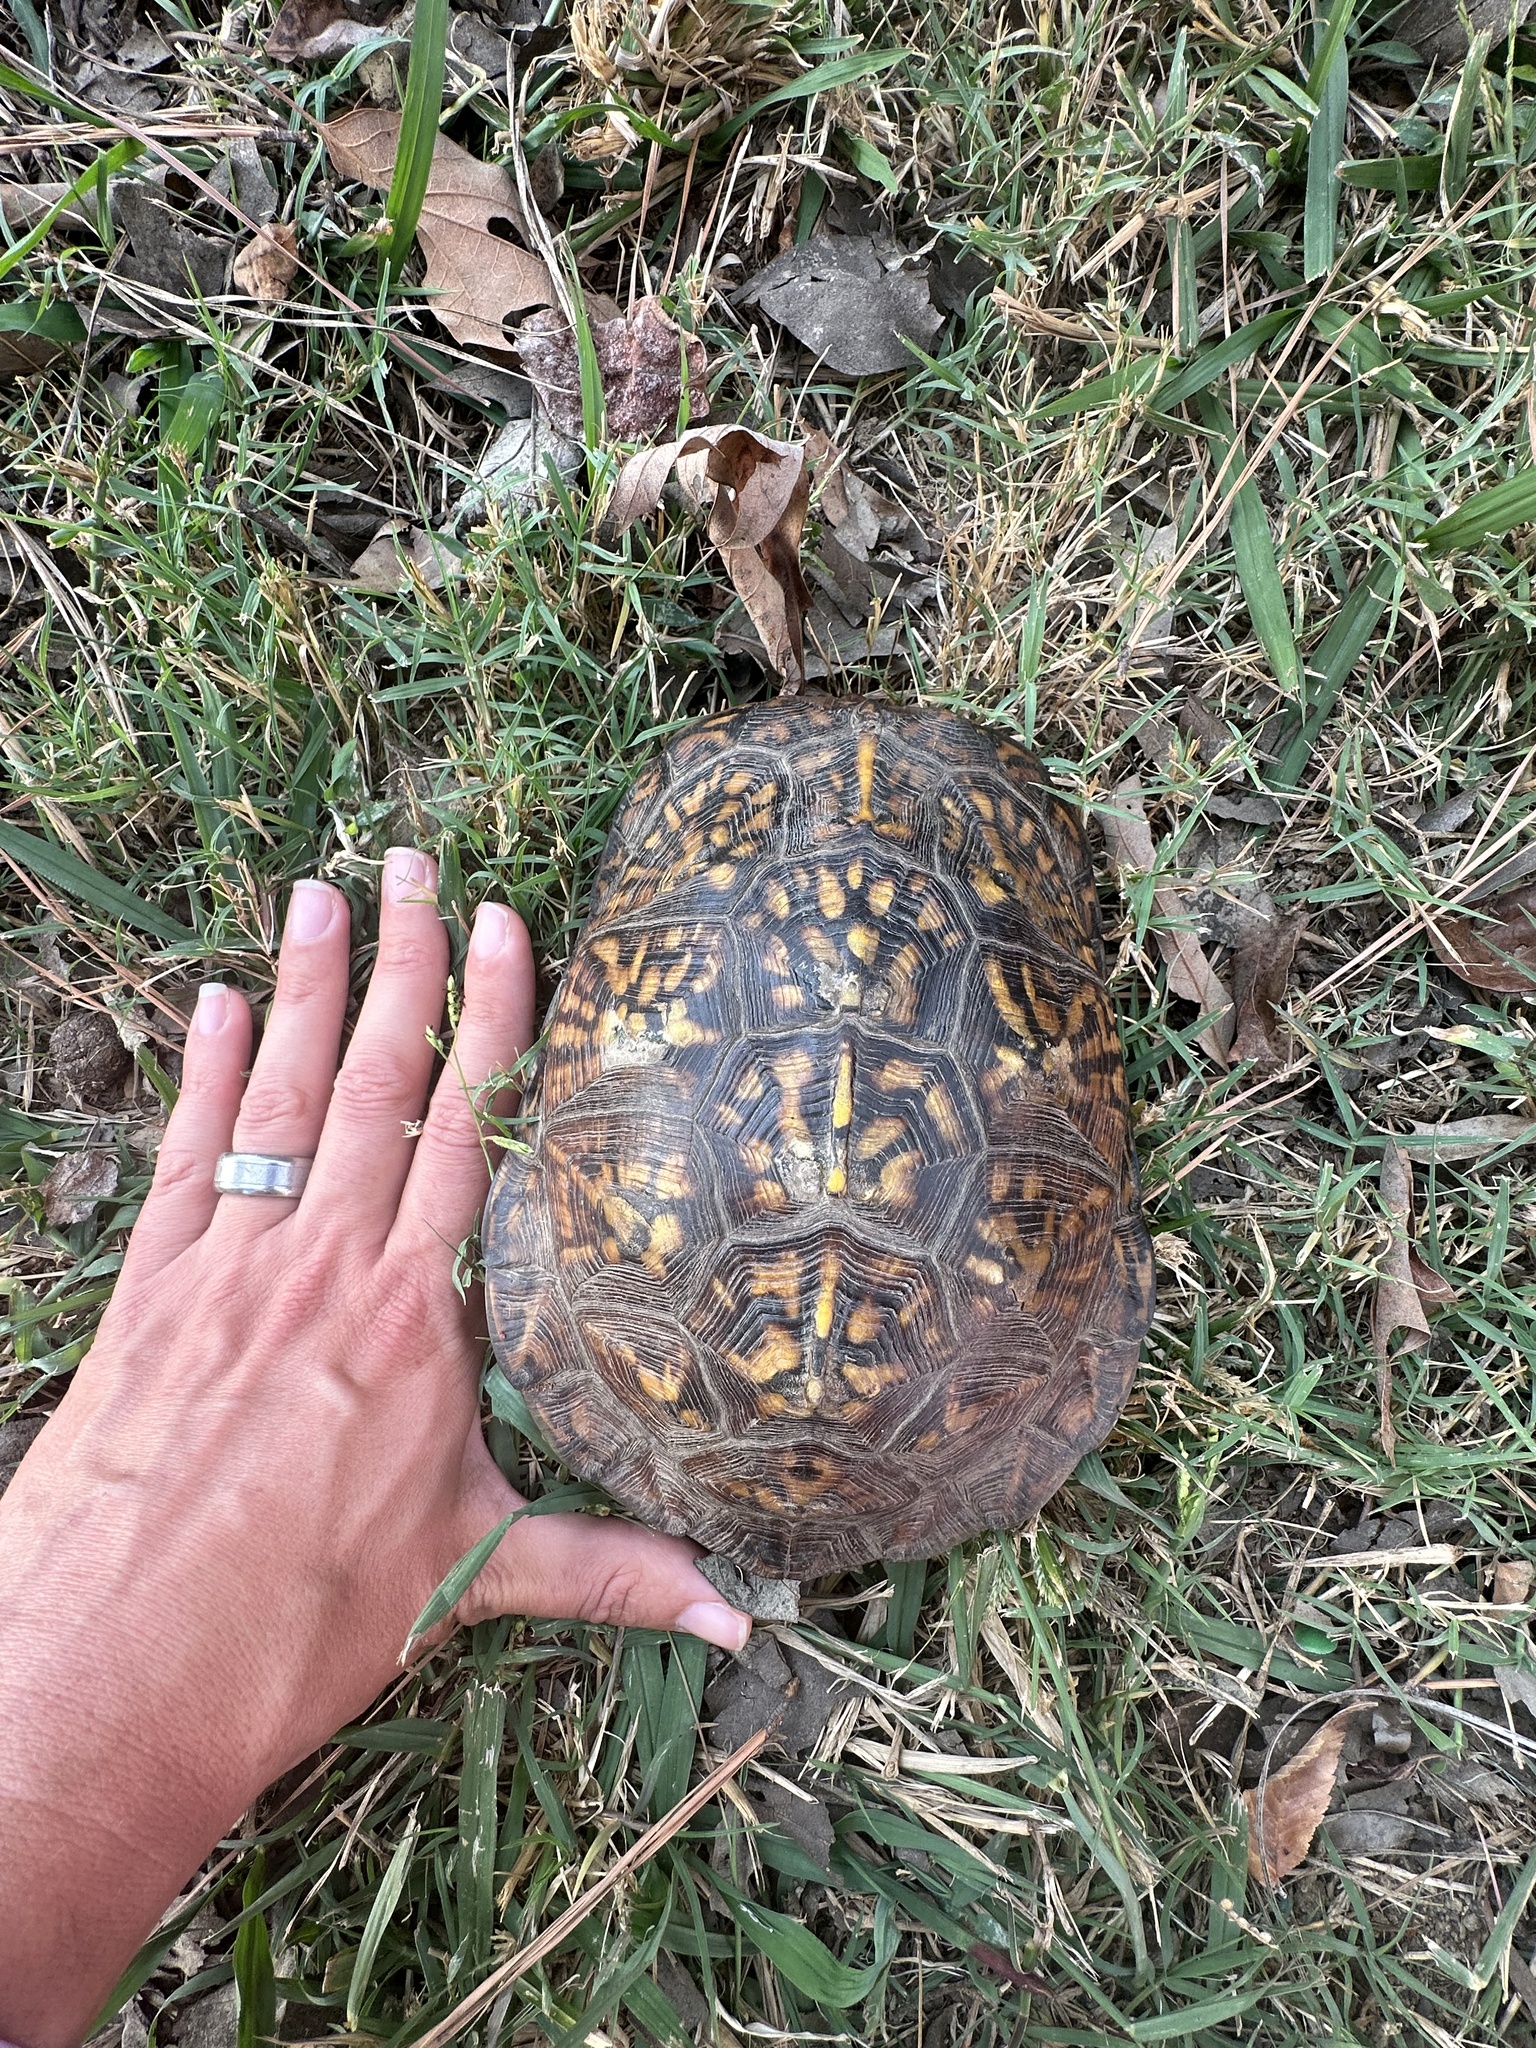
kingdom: Animalia
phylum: Chordata
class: Testudines
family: Emydidae
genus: Terrapene
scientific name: Terrapene carolina
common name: Common box turtle
